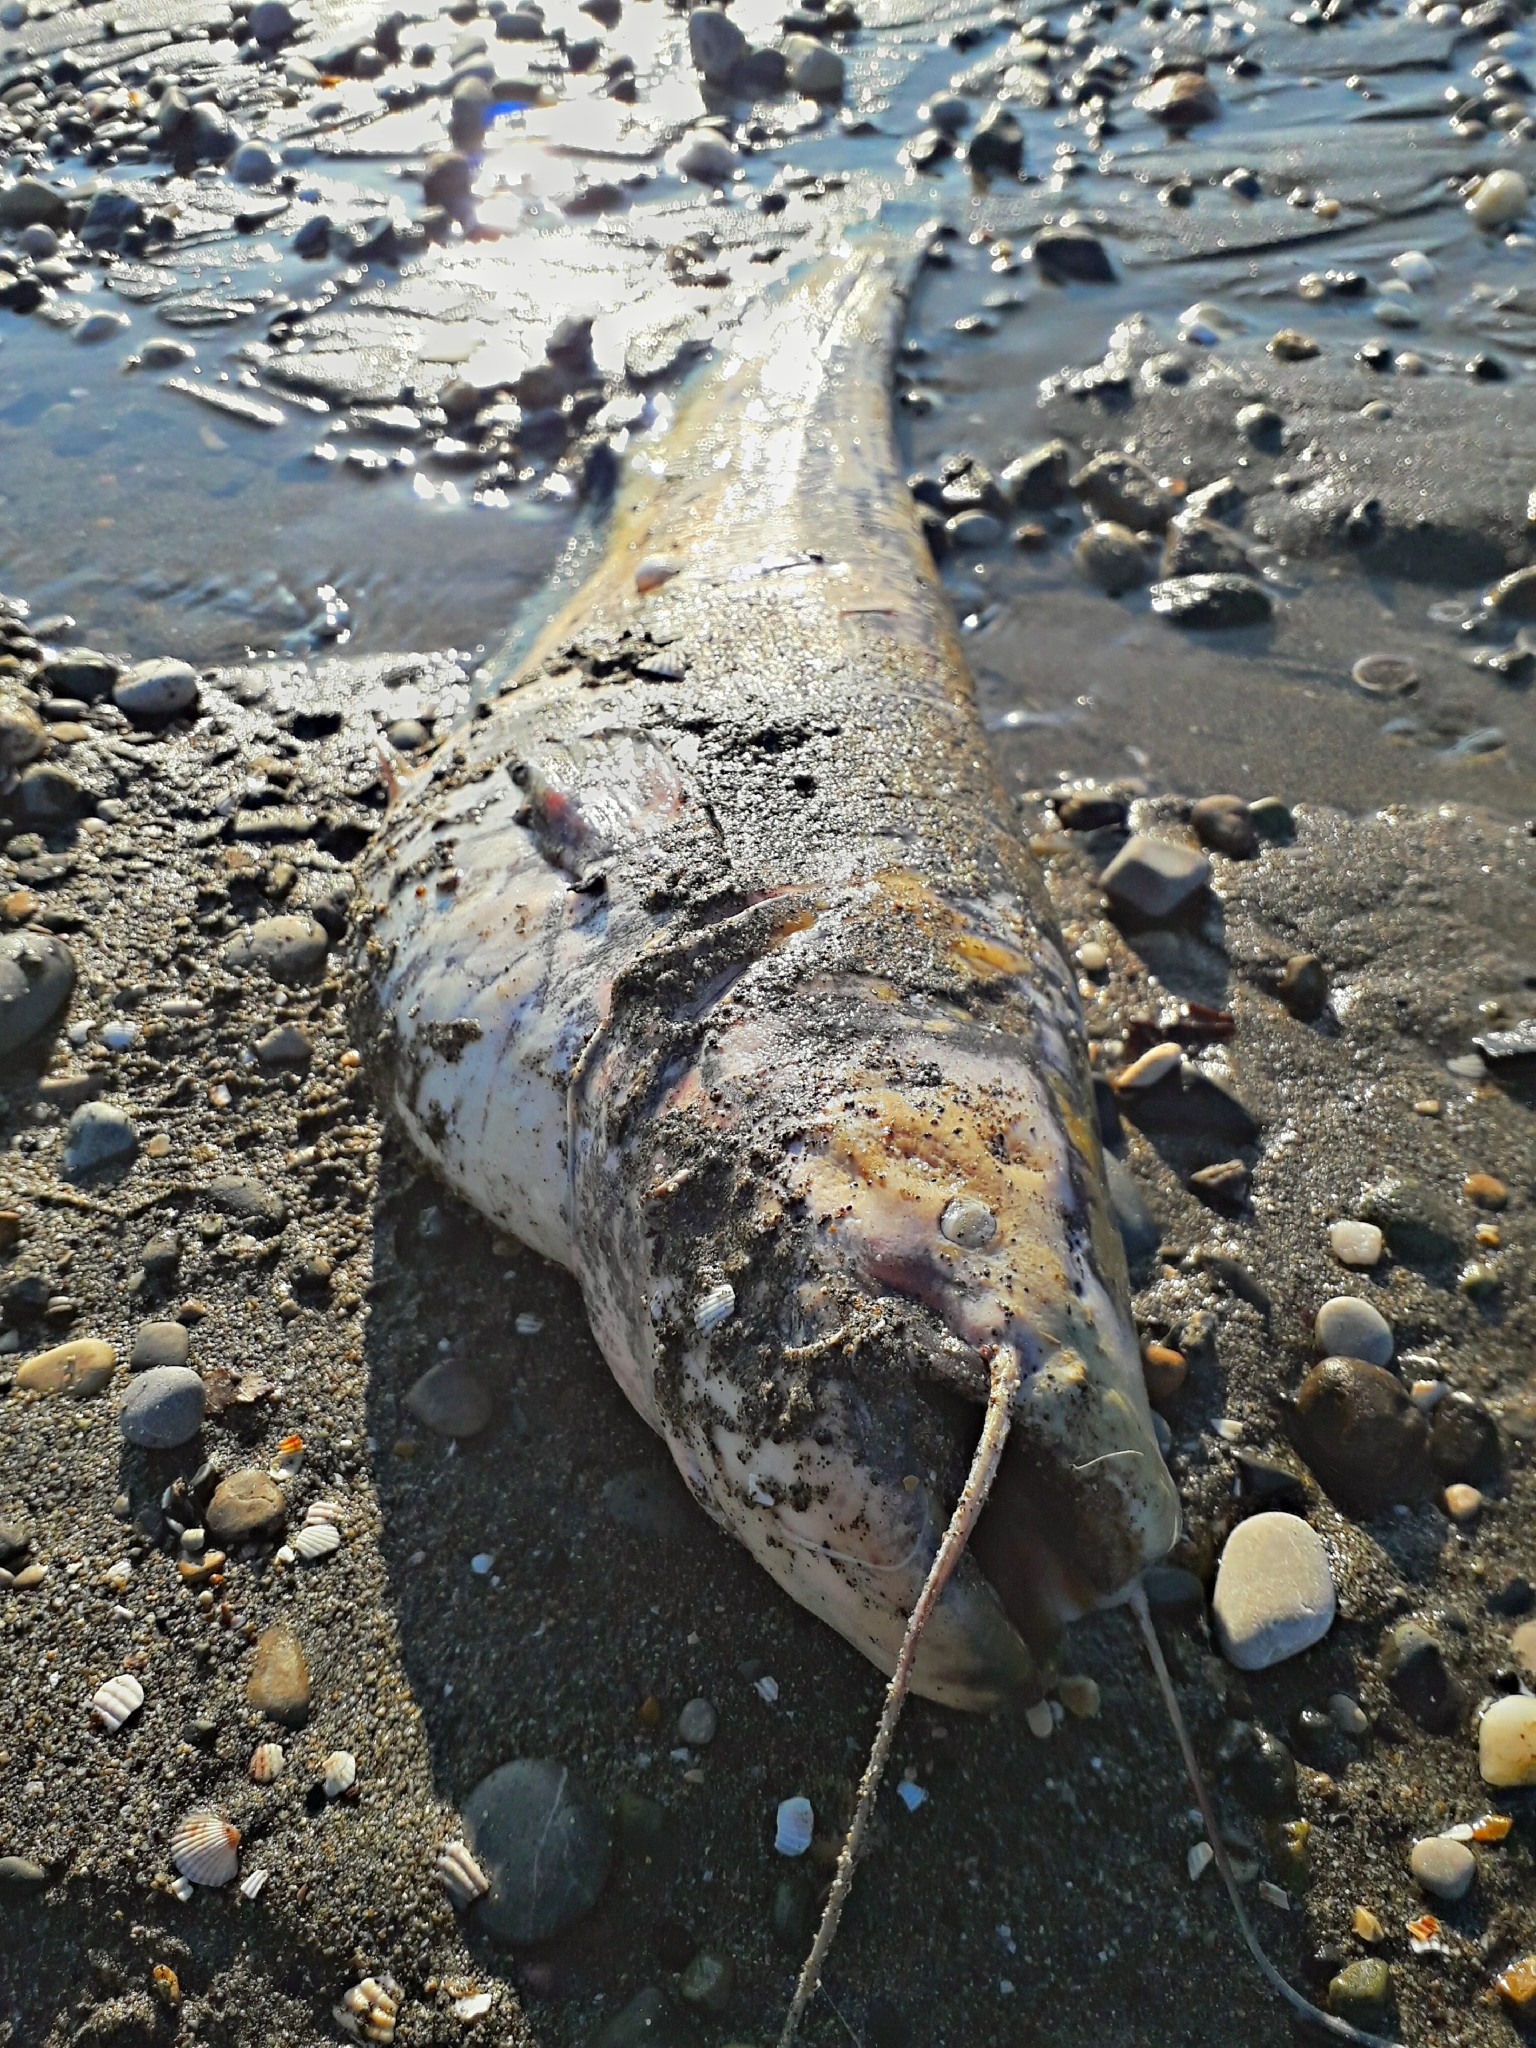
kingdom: Animalia
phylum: Chordata
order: Siluriformes
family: Siluridae
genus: Silurus
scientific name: Silurus glanis
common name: Wels
